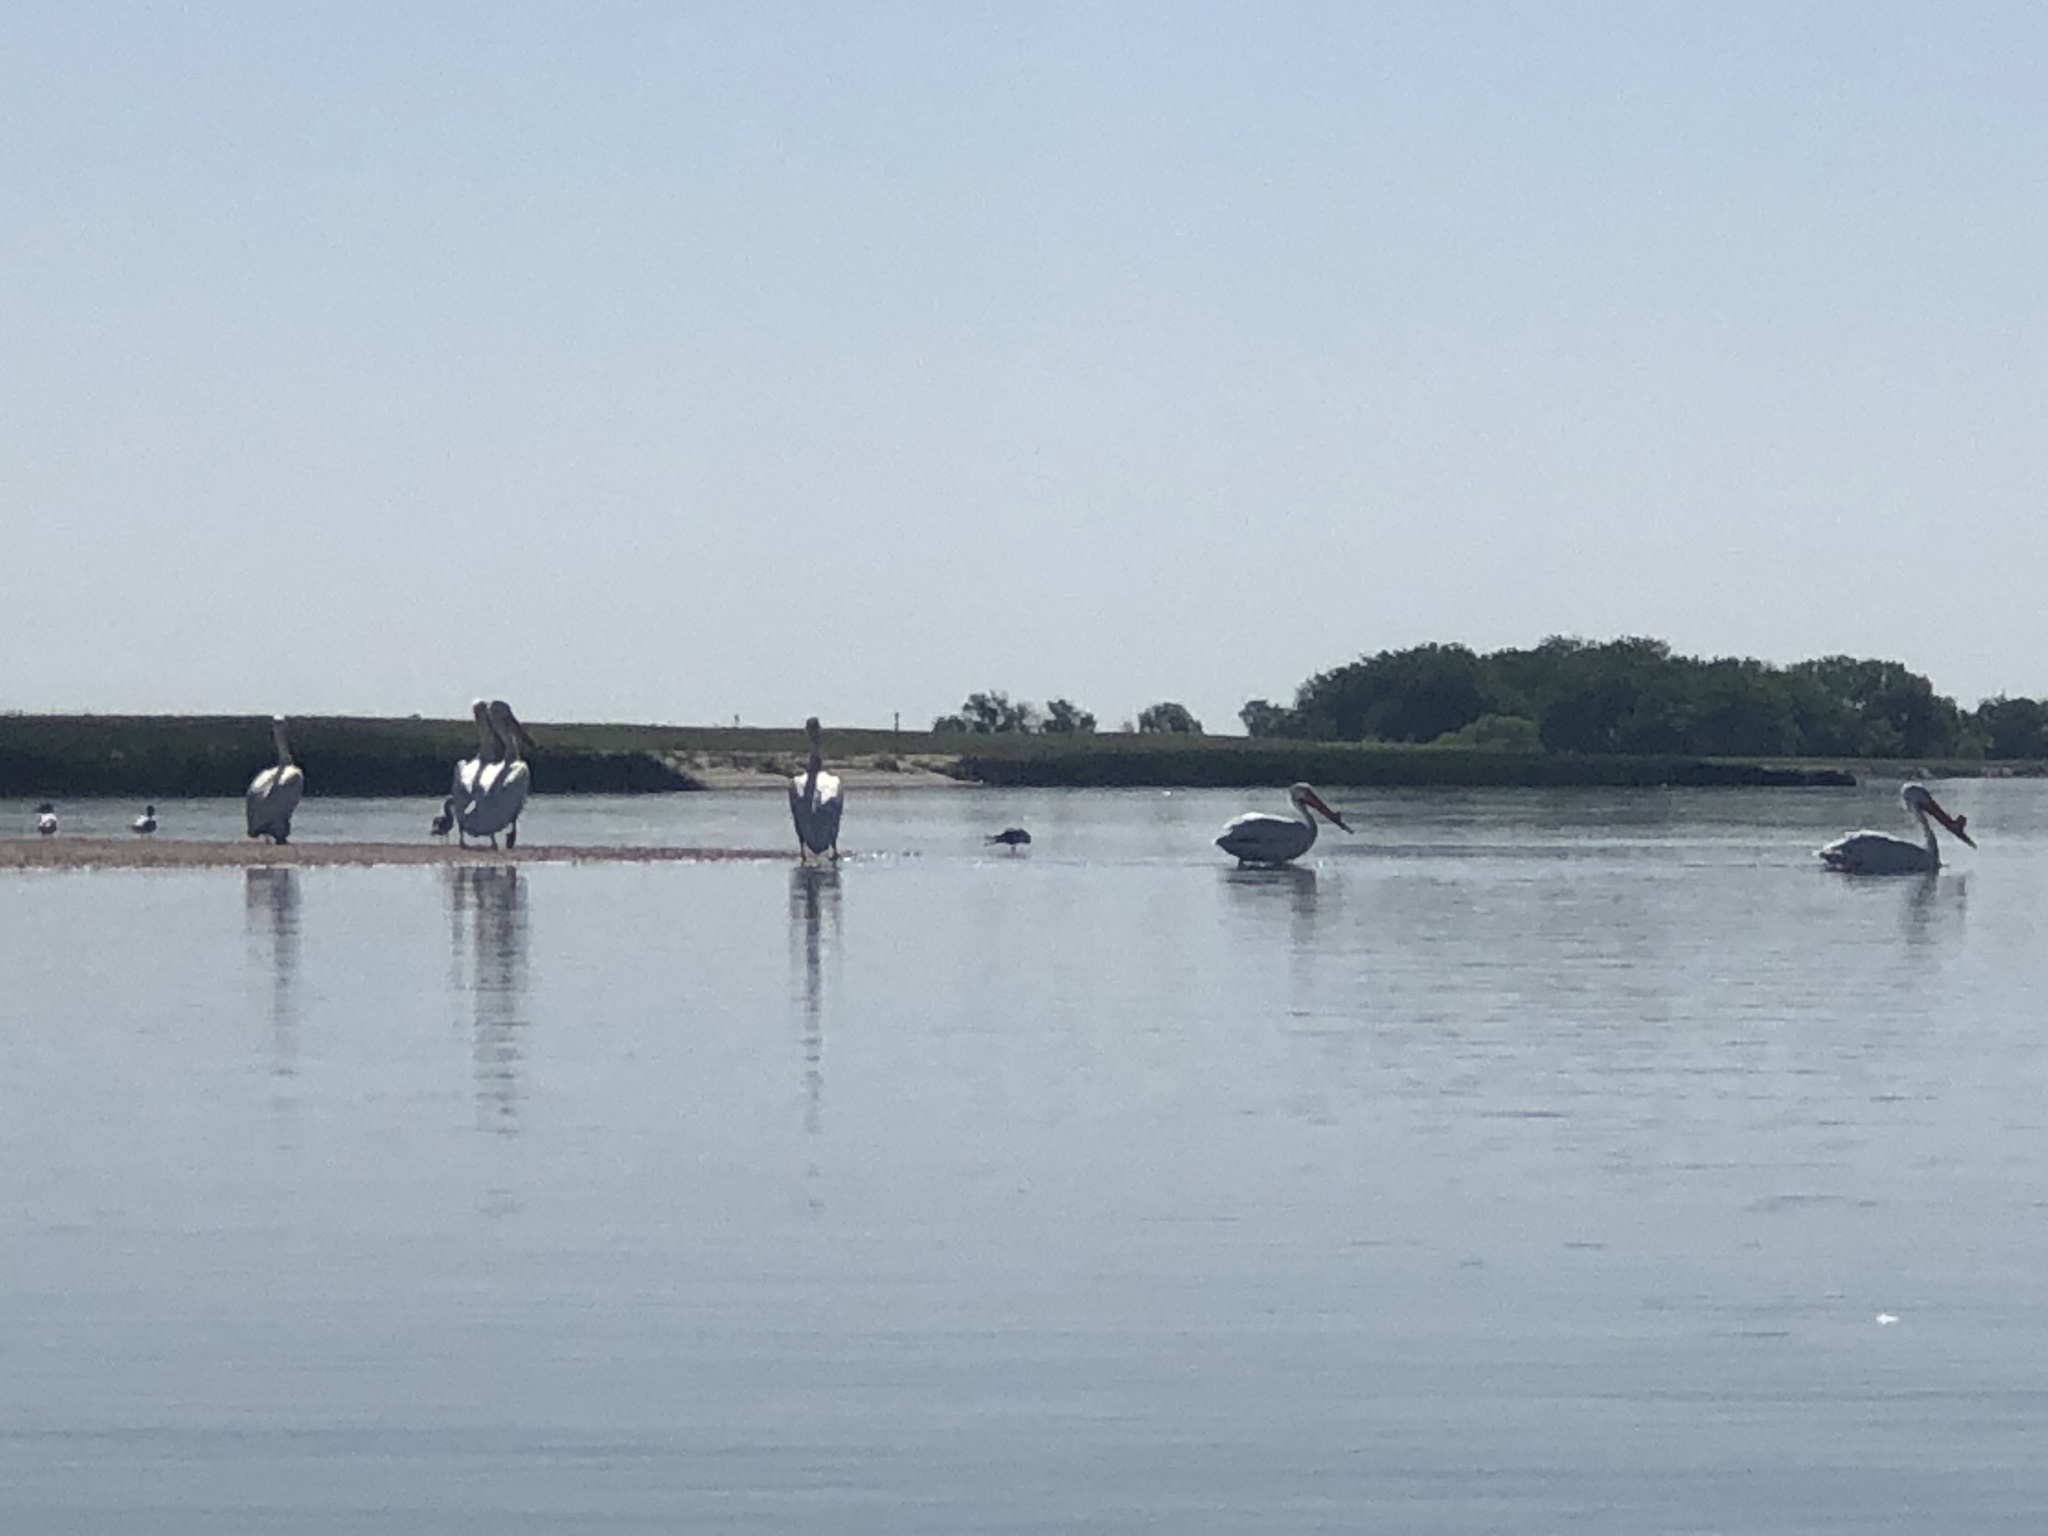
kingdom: Animalia
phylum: Chordata
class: Aves
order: Pelecaniformes
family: Pelecanidae
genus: Pelecanus
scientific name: Pelecanus erythrorhynchos
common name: American white pelican
